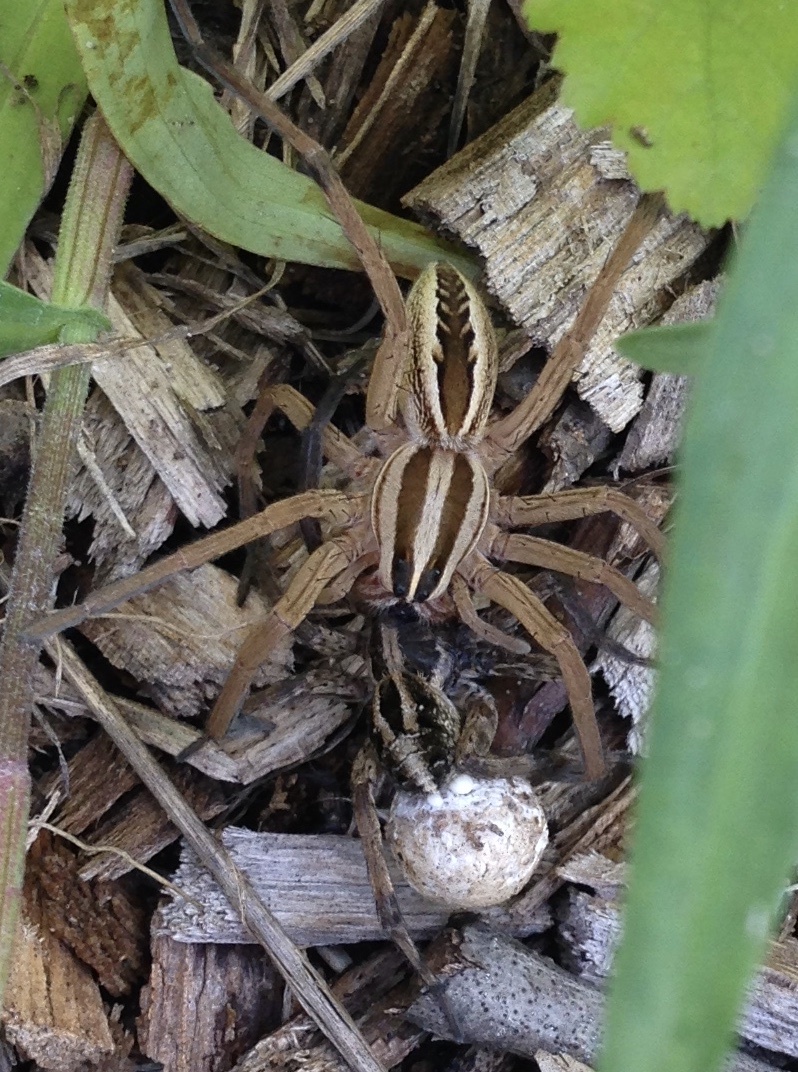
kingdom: Animalia
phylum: Arthropoda
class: Arachnida
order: Araneae
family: Lycosidae
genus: Rabidosa
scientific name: Rabidosa rabida
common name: Rabid wolf spider
